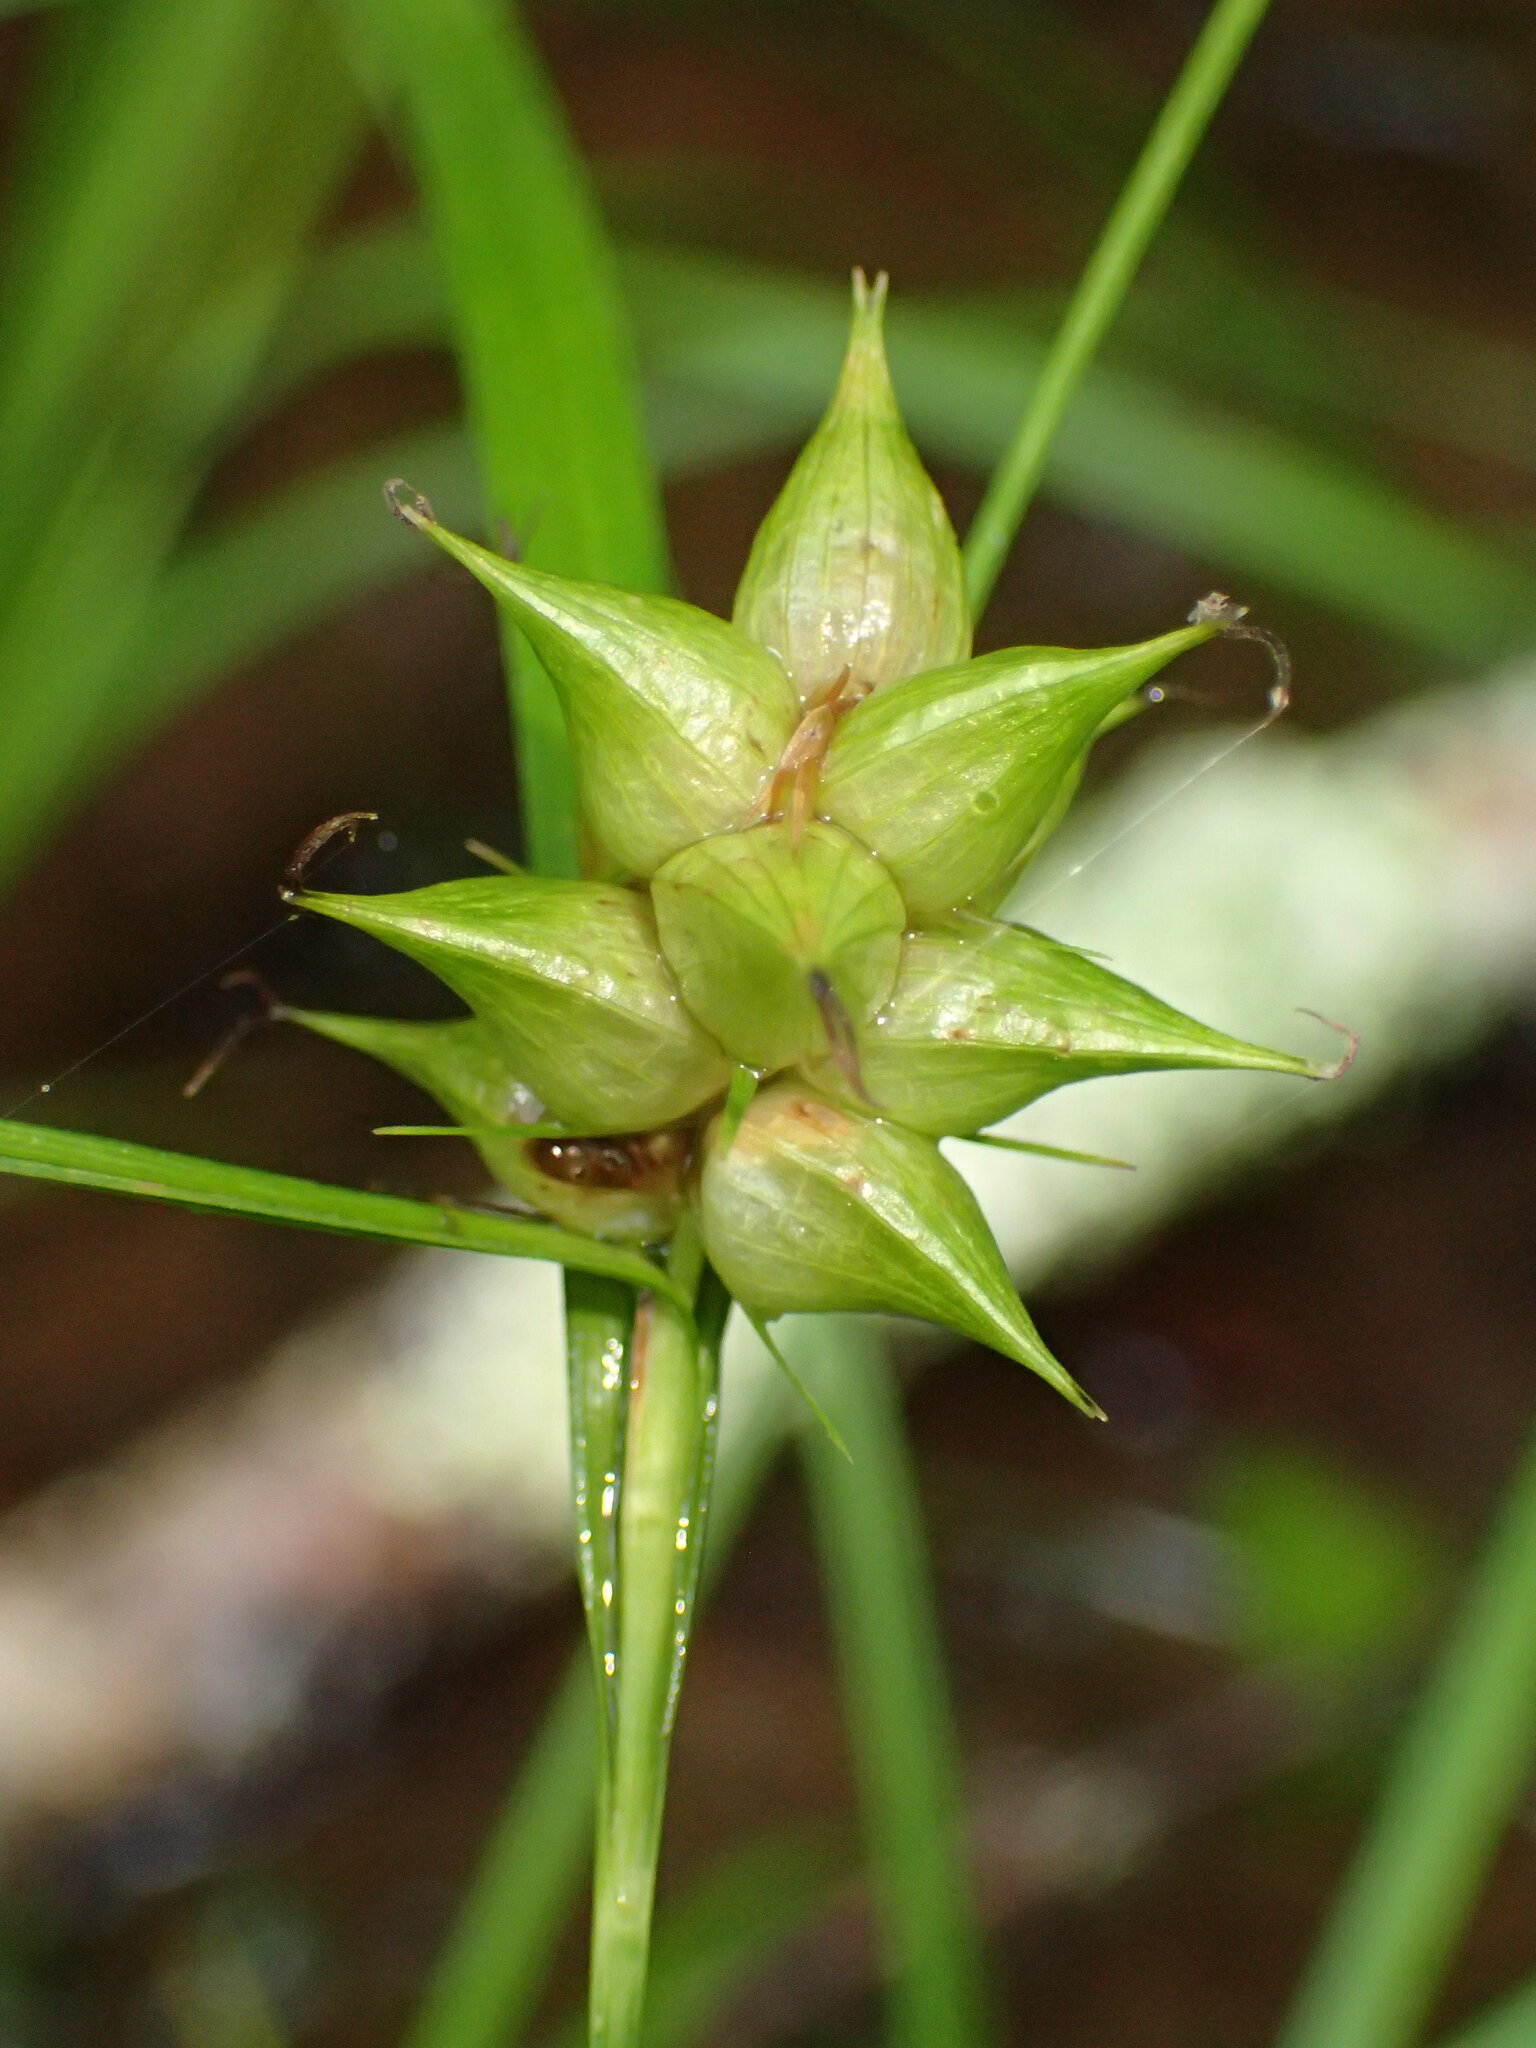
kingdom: Plantae
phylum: Tracheophyta
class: Liliopsida
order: Poales
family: Cyperaceae
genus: Carex
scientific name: Carex intumescens
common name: Greater bladder sedge
